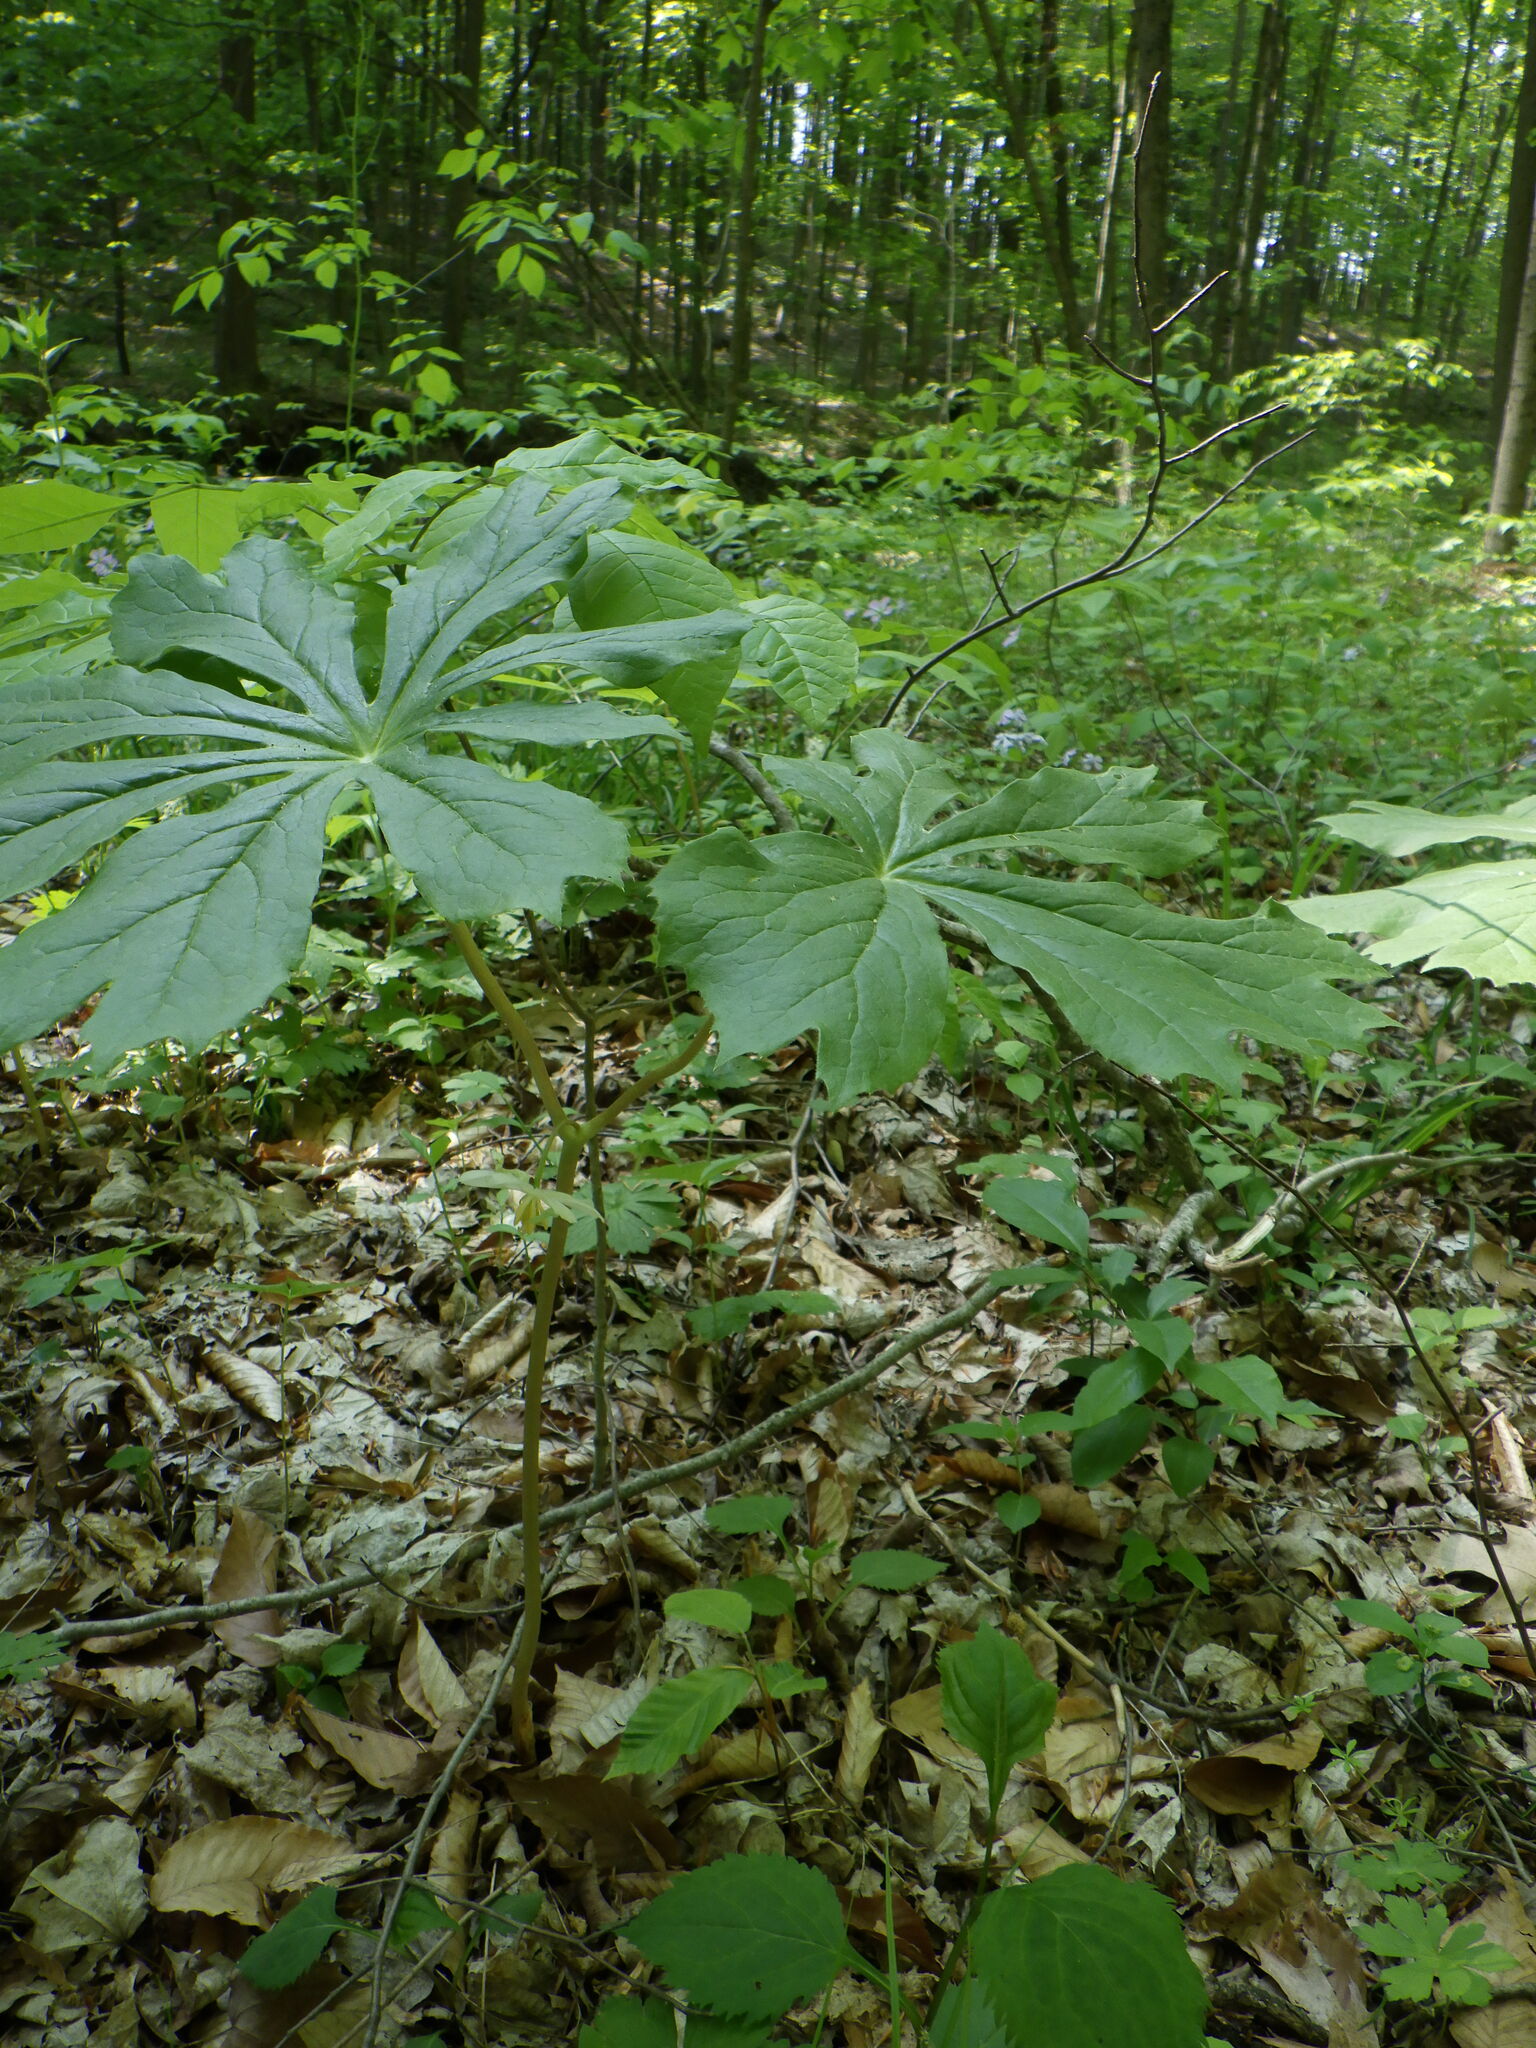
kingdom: Plantae
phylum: Tracheophyta
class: Magnoliopsida
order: Ranunculales
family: Berberidaceae
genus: Podophyllum
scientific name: Podophyllum peltatum
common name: Wild mandrake
